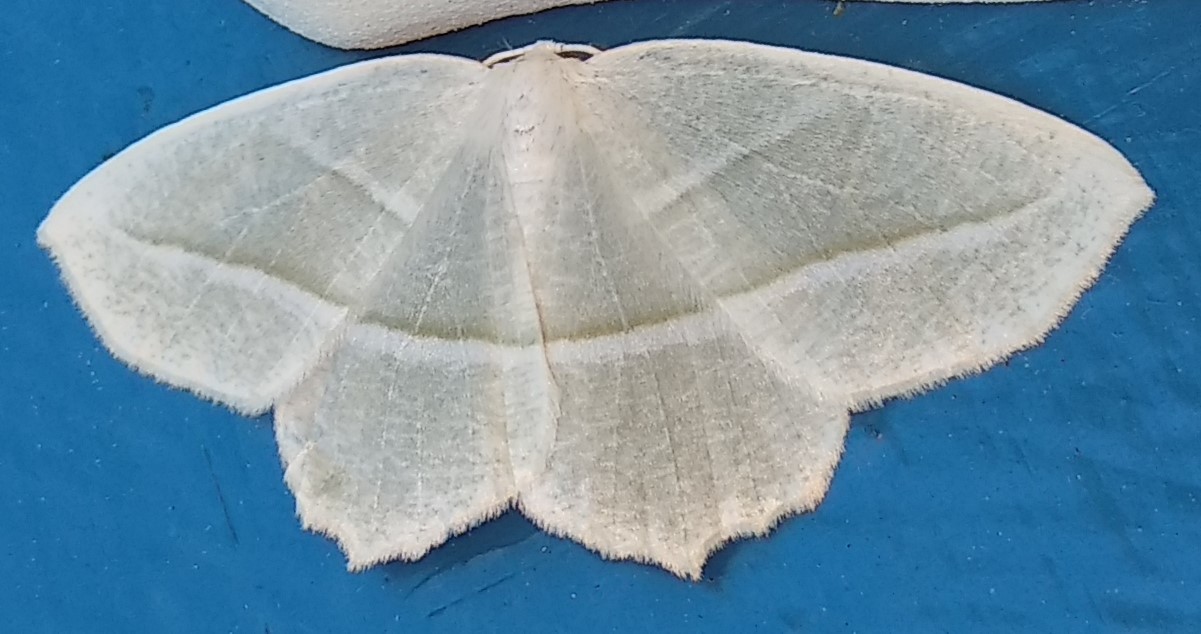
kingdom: Animalia
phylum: Arthropoda
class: Insecta
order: Lepidoptera
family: Geometridae
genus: Campaea
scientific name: Campaea perlata
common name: Fringed looper
